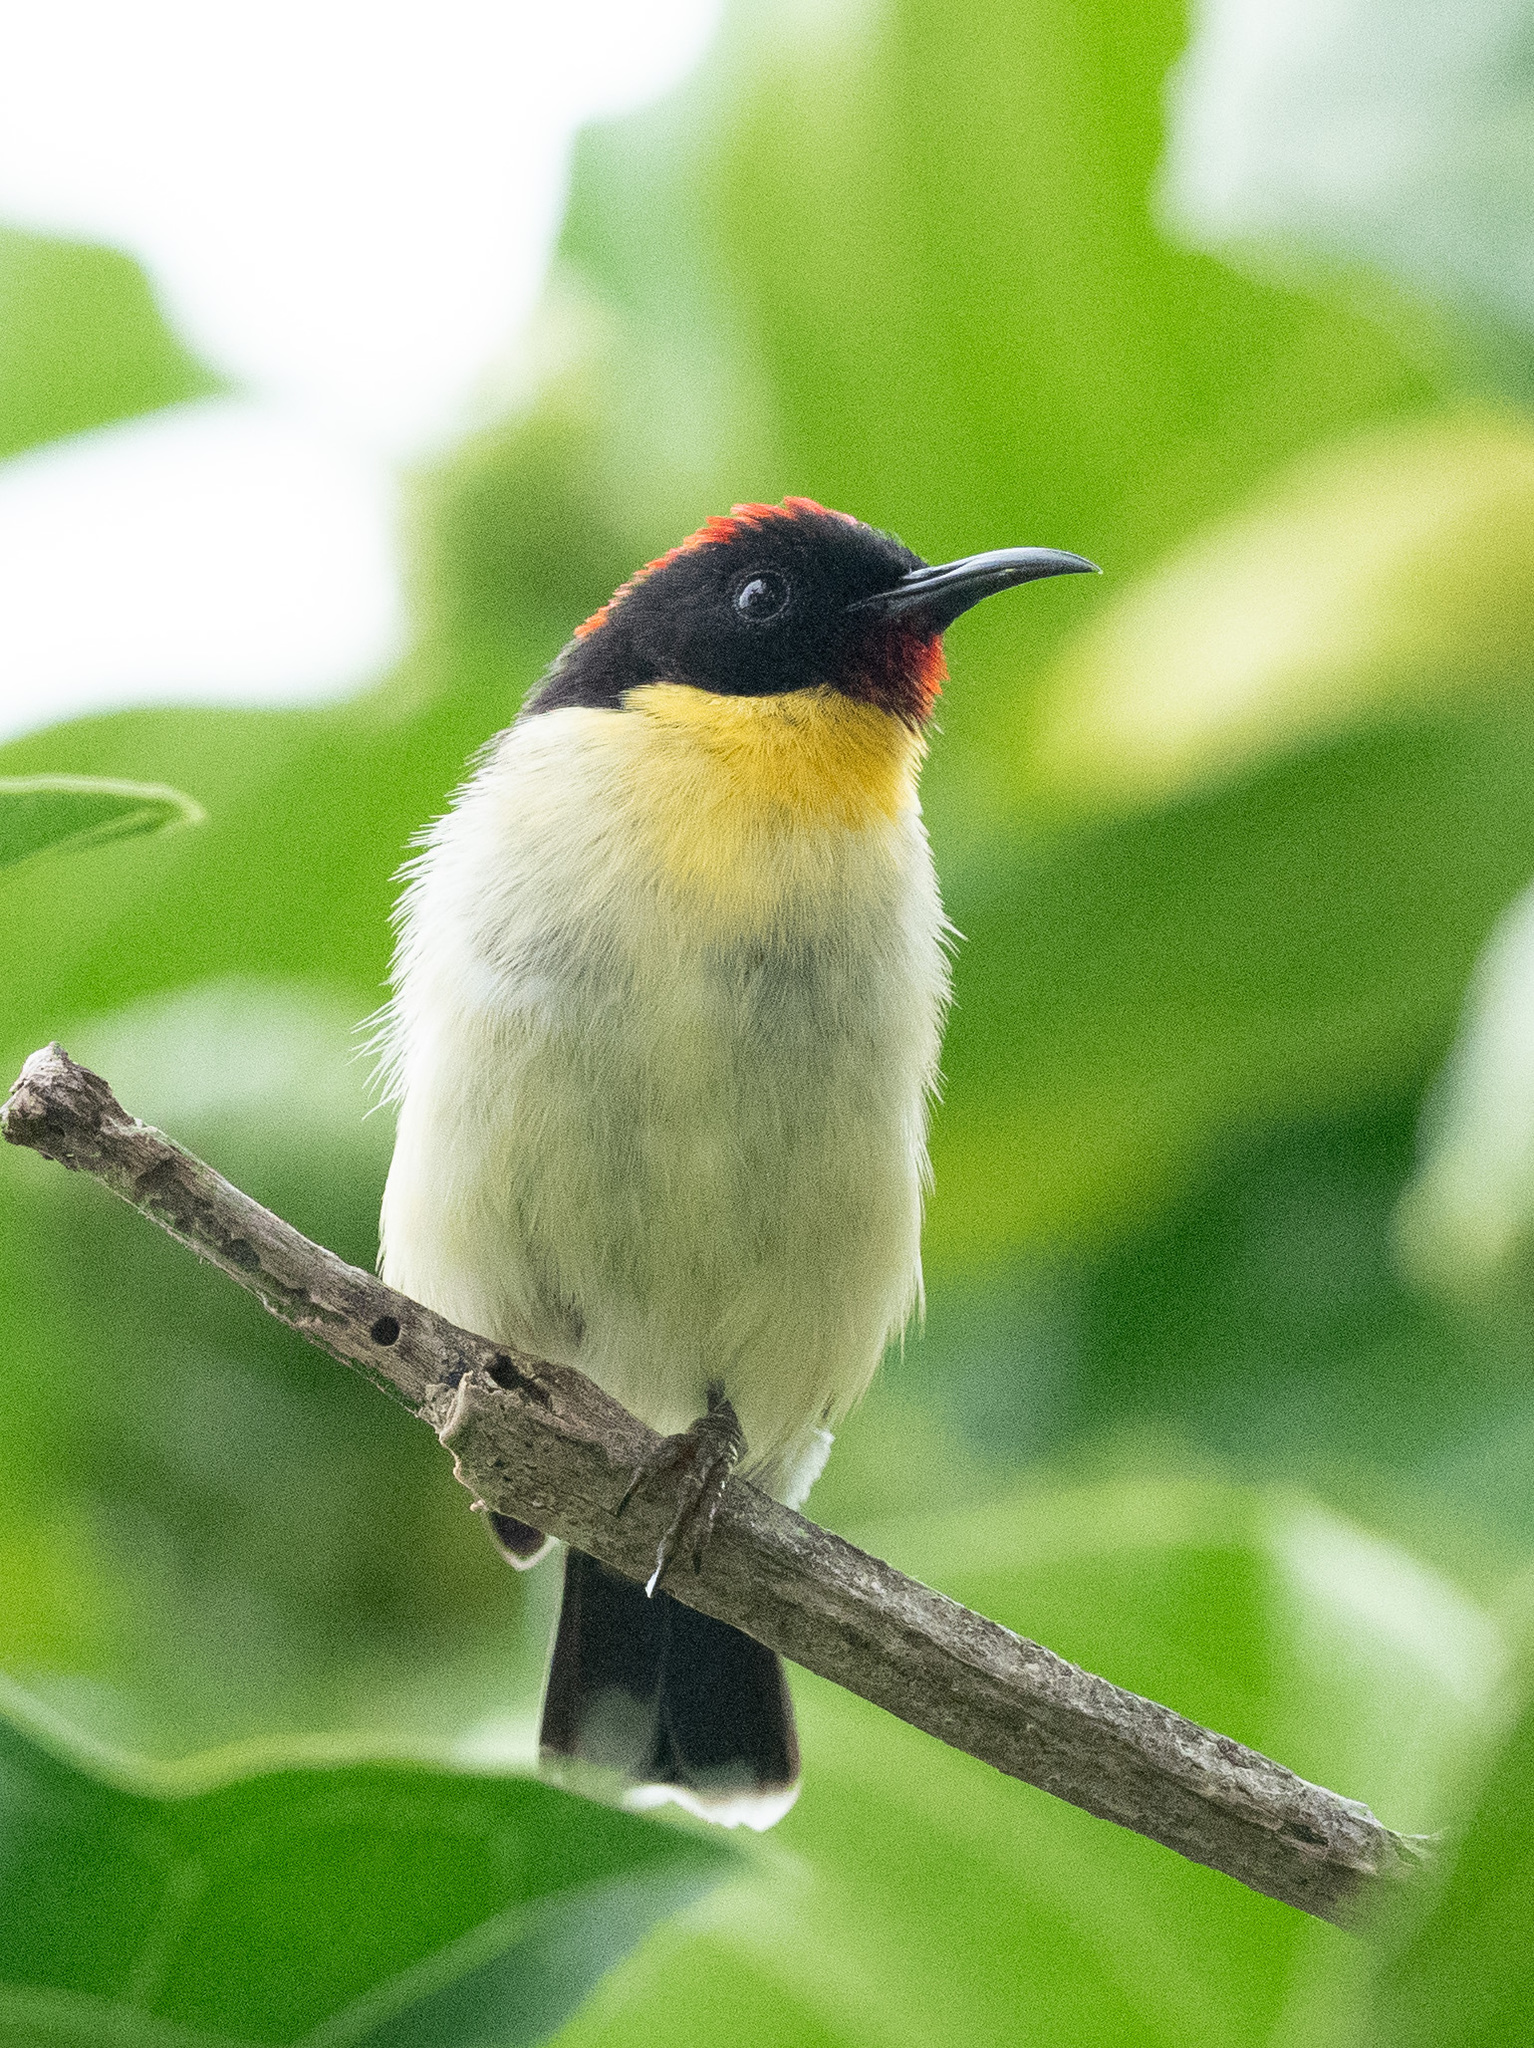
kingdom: Animalia
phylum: Chordata
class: Aves
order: Passeriformes
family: Meliphagidae
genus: Myzomela
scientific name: Myzomela jugularis
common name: Sulphur-breasted myzomela
